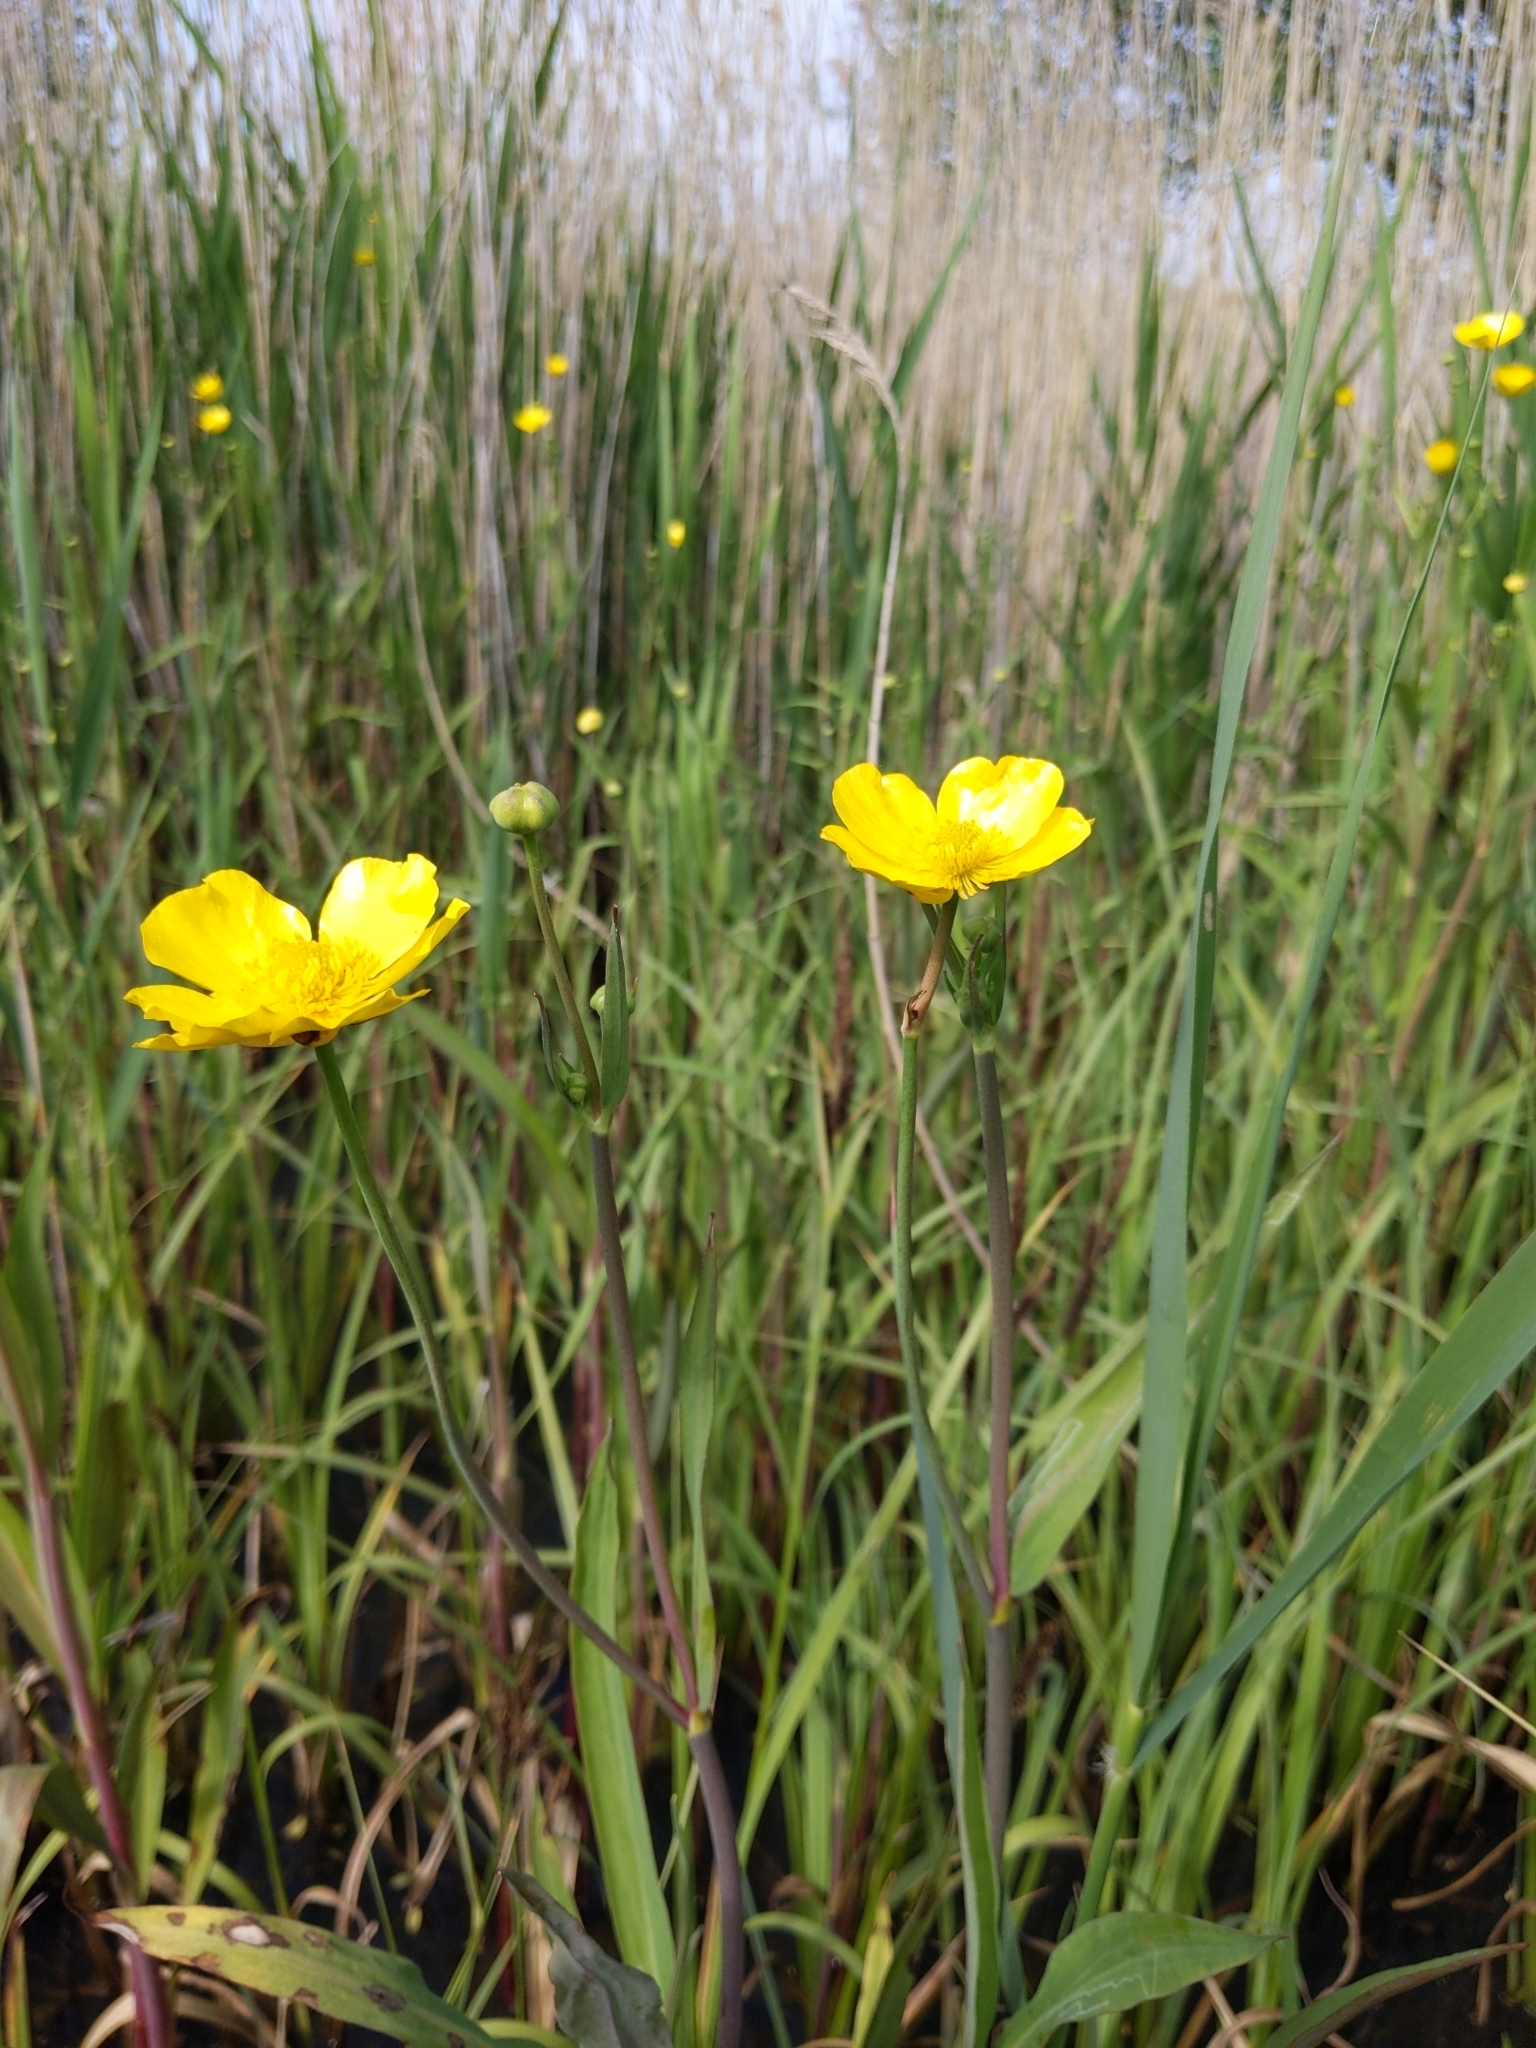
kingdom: Plantae
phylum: Tracheophyta
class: Magnoliopsida
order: Ranunculales
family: Ranunculaceae
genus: Ranunculus
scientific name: Ranunculus lingua
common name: Greater spearwort
